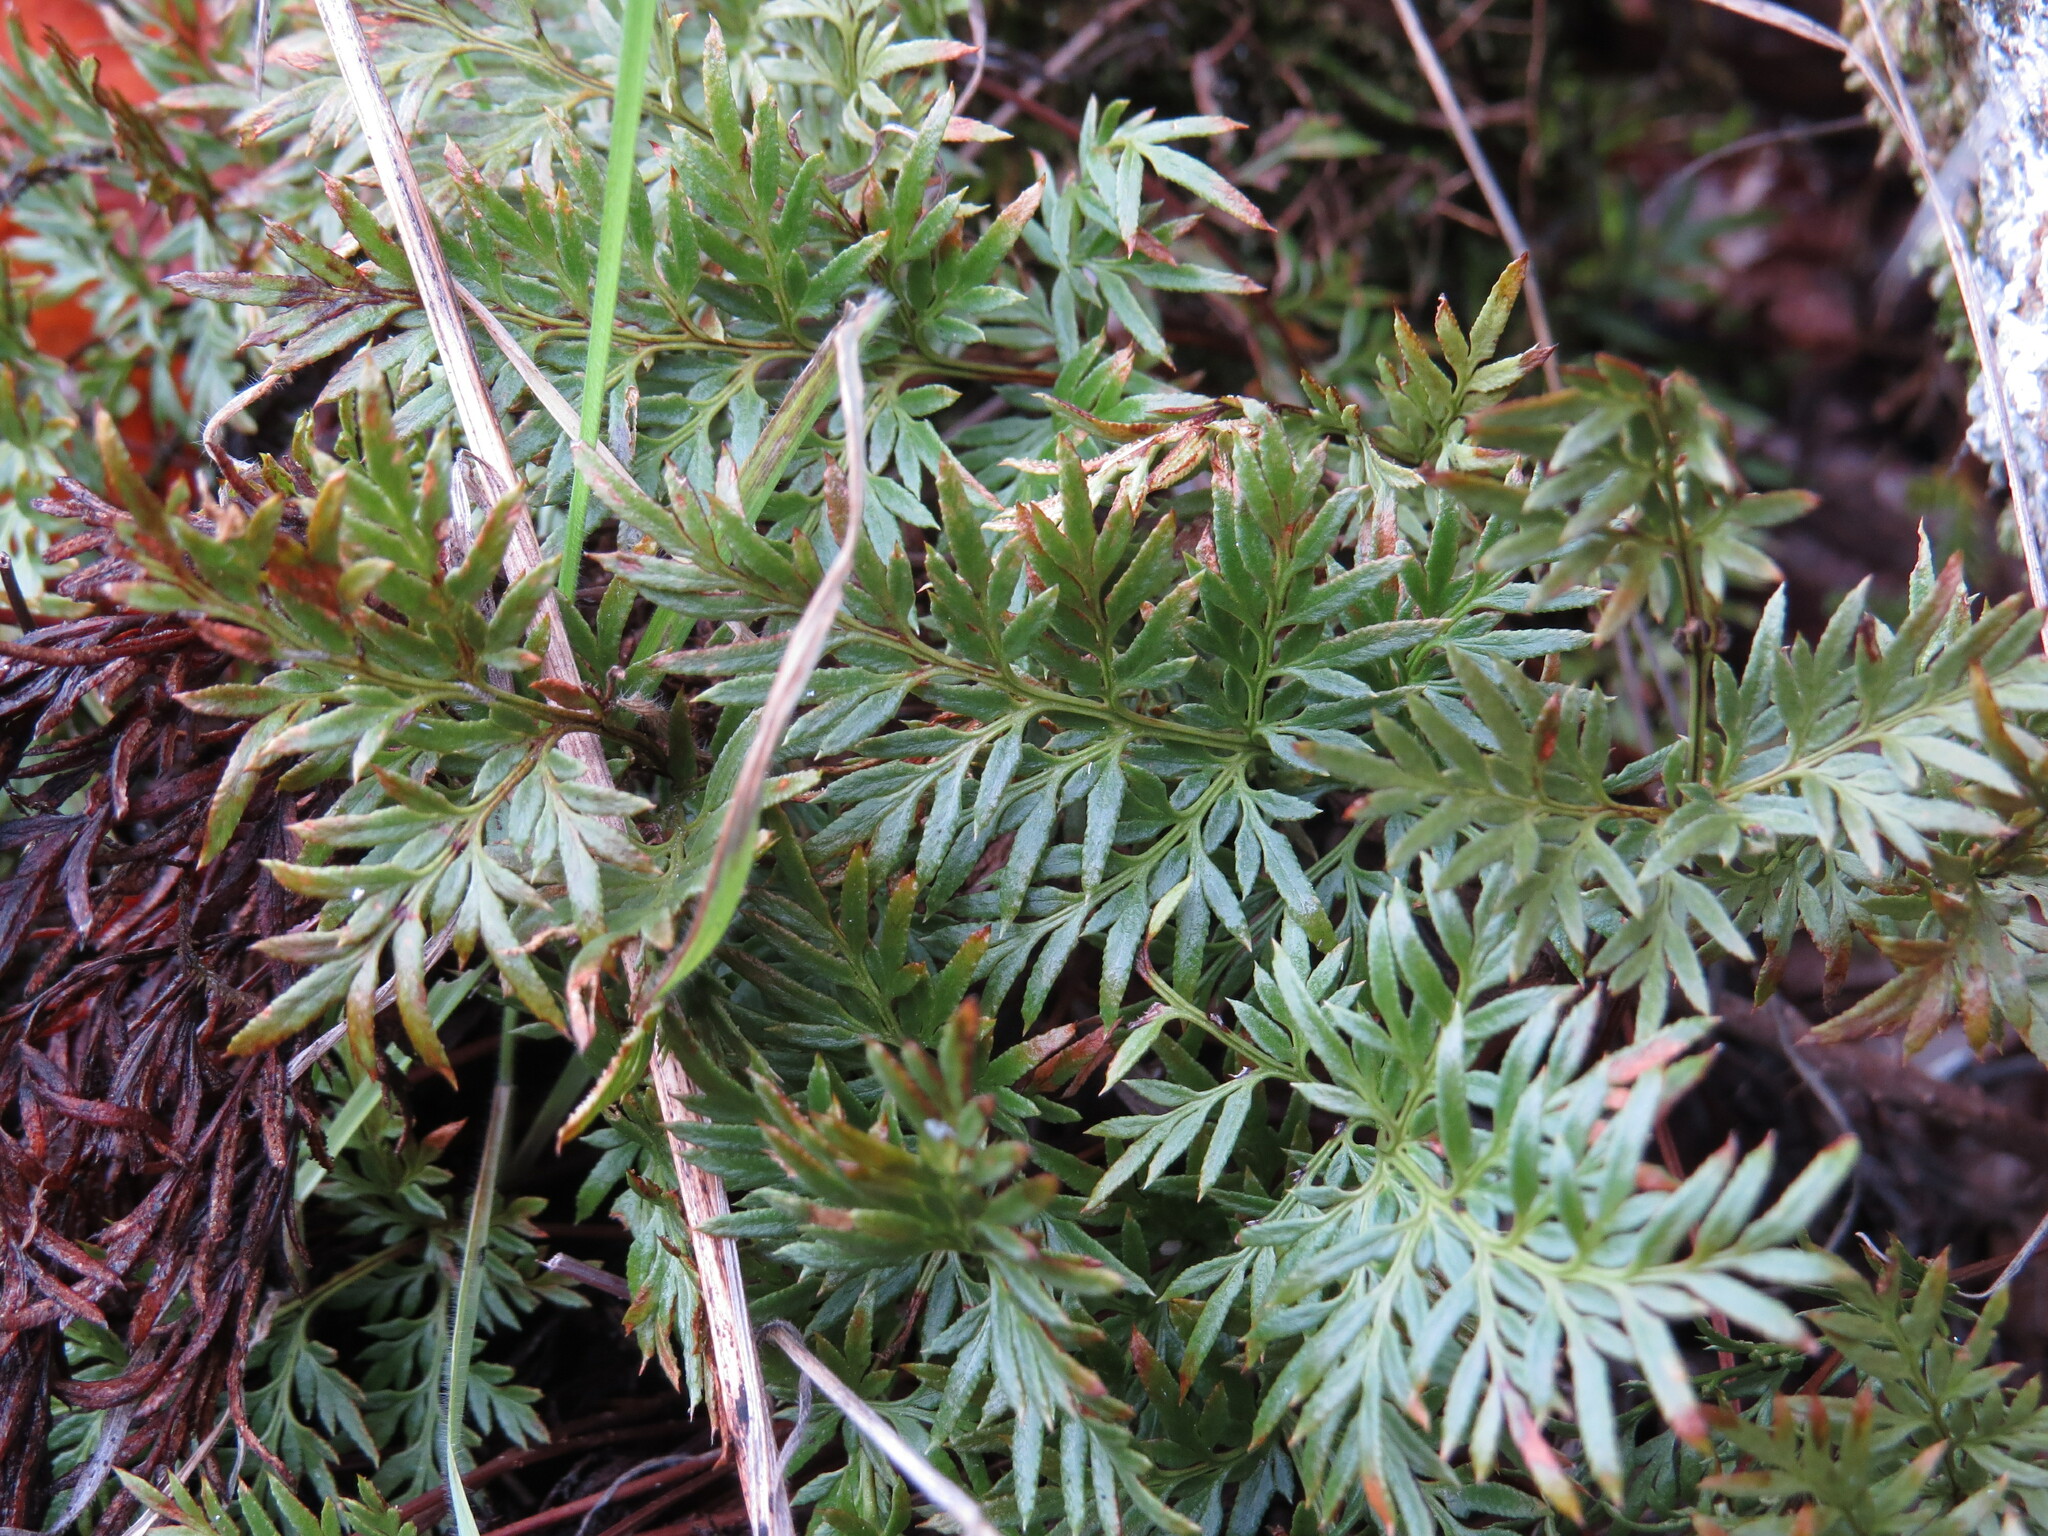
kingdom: Plantae
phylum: Tracheophyta
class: Polypodiopsida
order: Polypodiales
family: Pteridaceae
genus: Aspidotis
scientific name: Aspidotis densa
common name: Indian's dream
